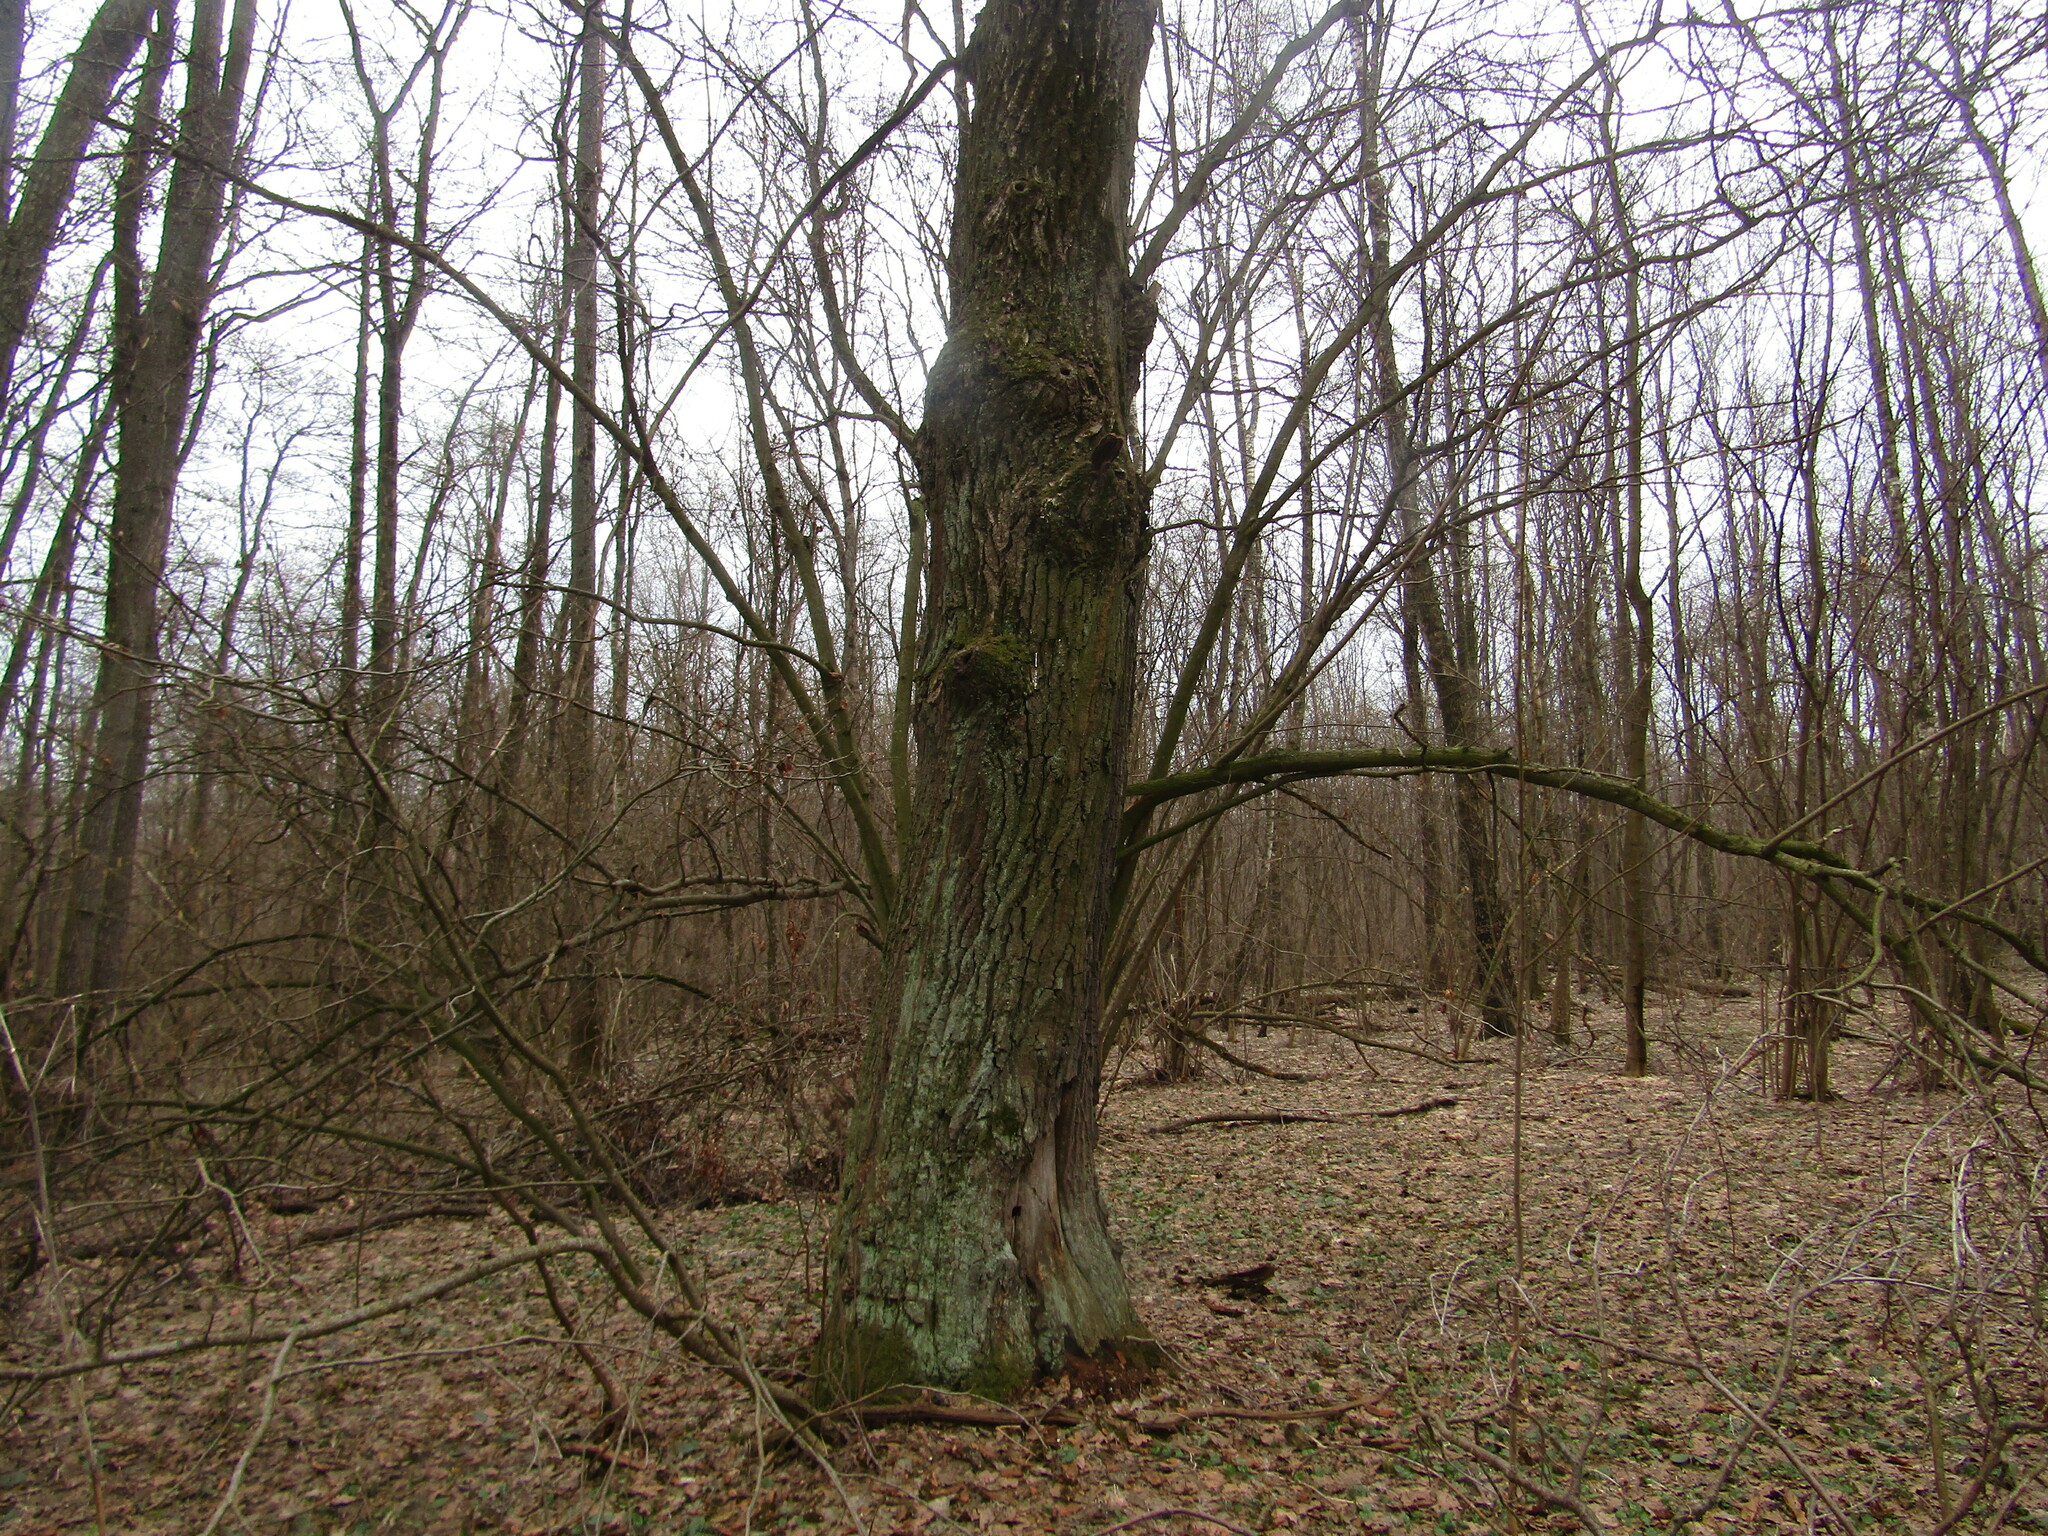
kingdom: Plantae
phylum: Tracheophyta
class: Magnoliopsida
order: Fagales
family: Fagaceae
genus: Quercus
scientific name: Quercus robur
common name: Pedunculate oak
